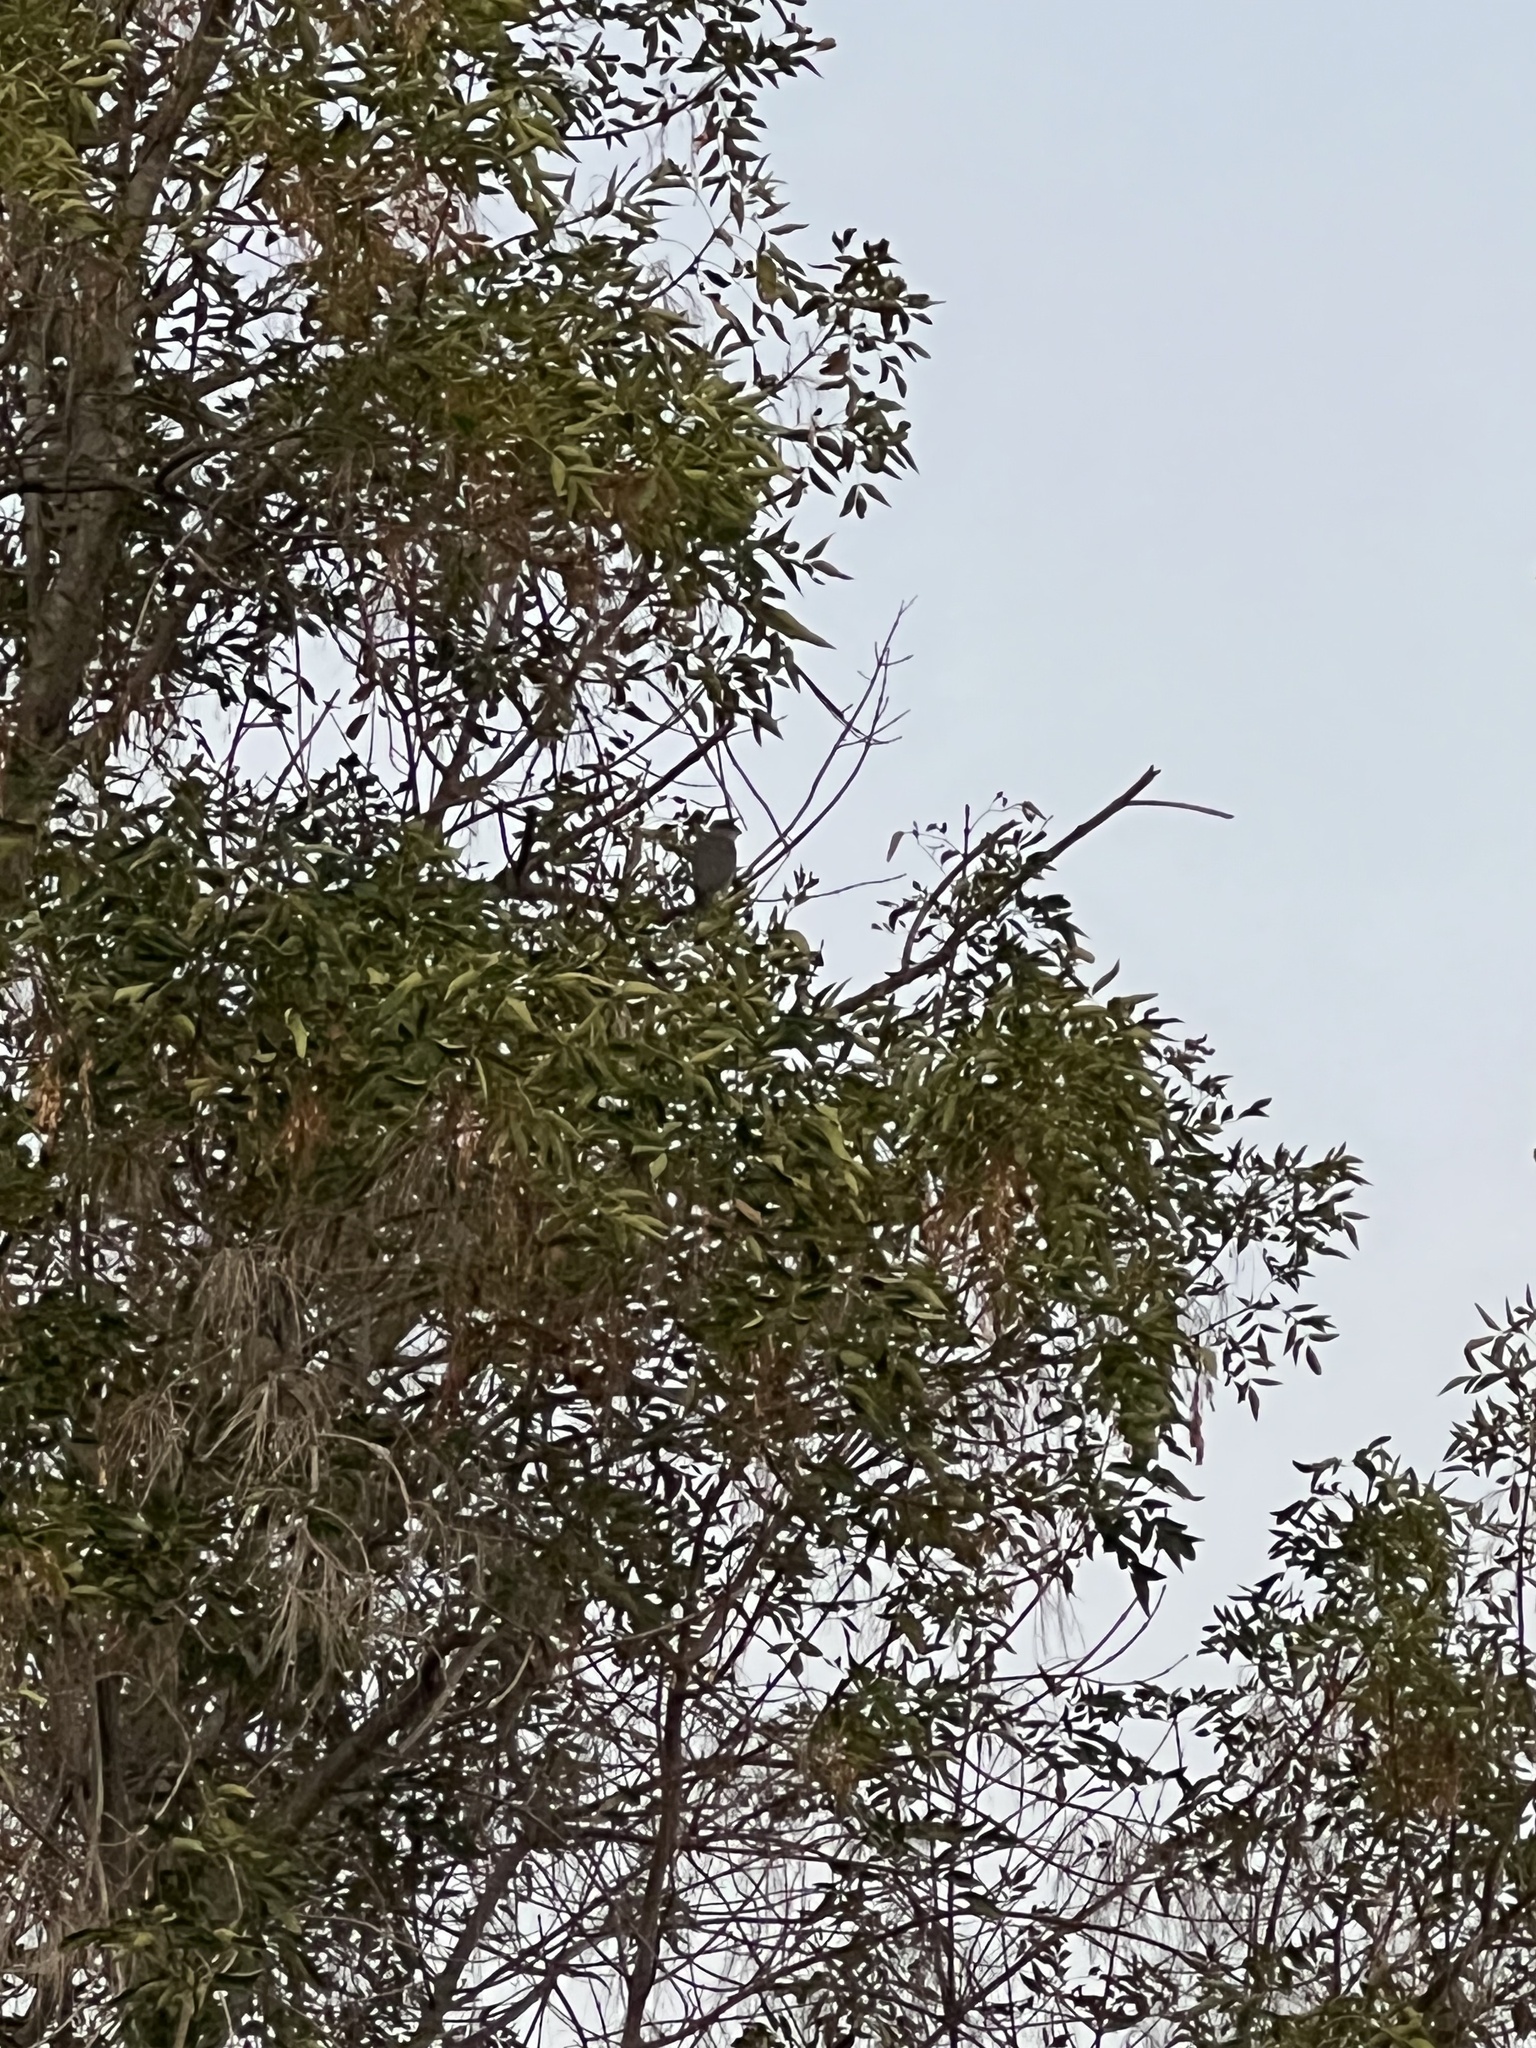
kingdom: Animalia
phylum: Chordata
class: Aves
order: Accipitriformes
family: Accipitridae
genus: Accipiter
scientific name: Accipiter cooperii
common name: Cooper's hawk
